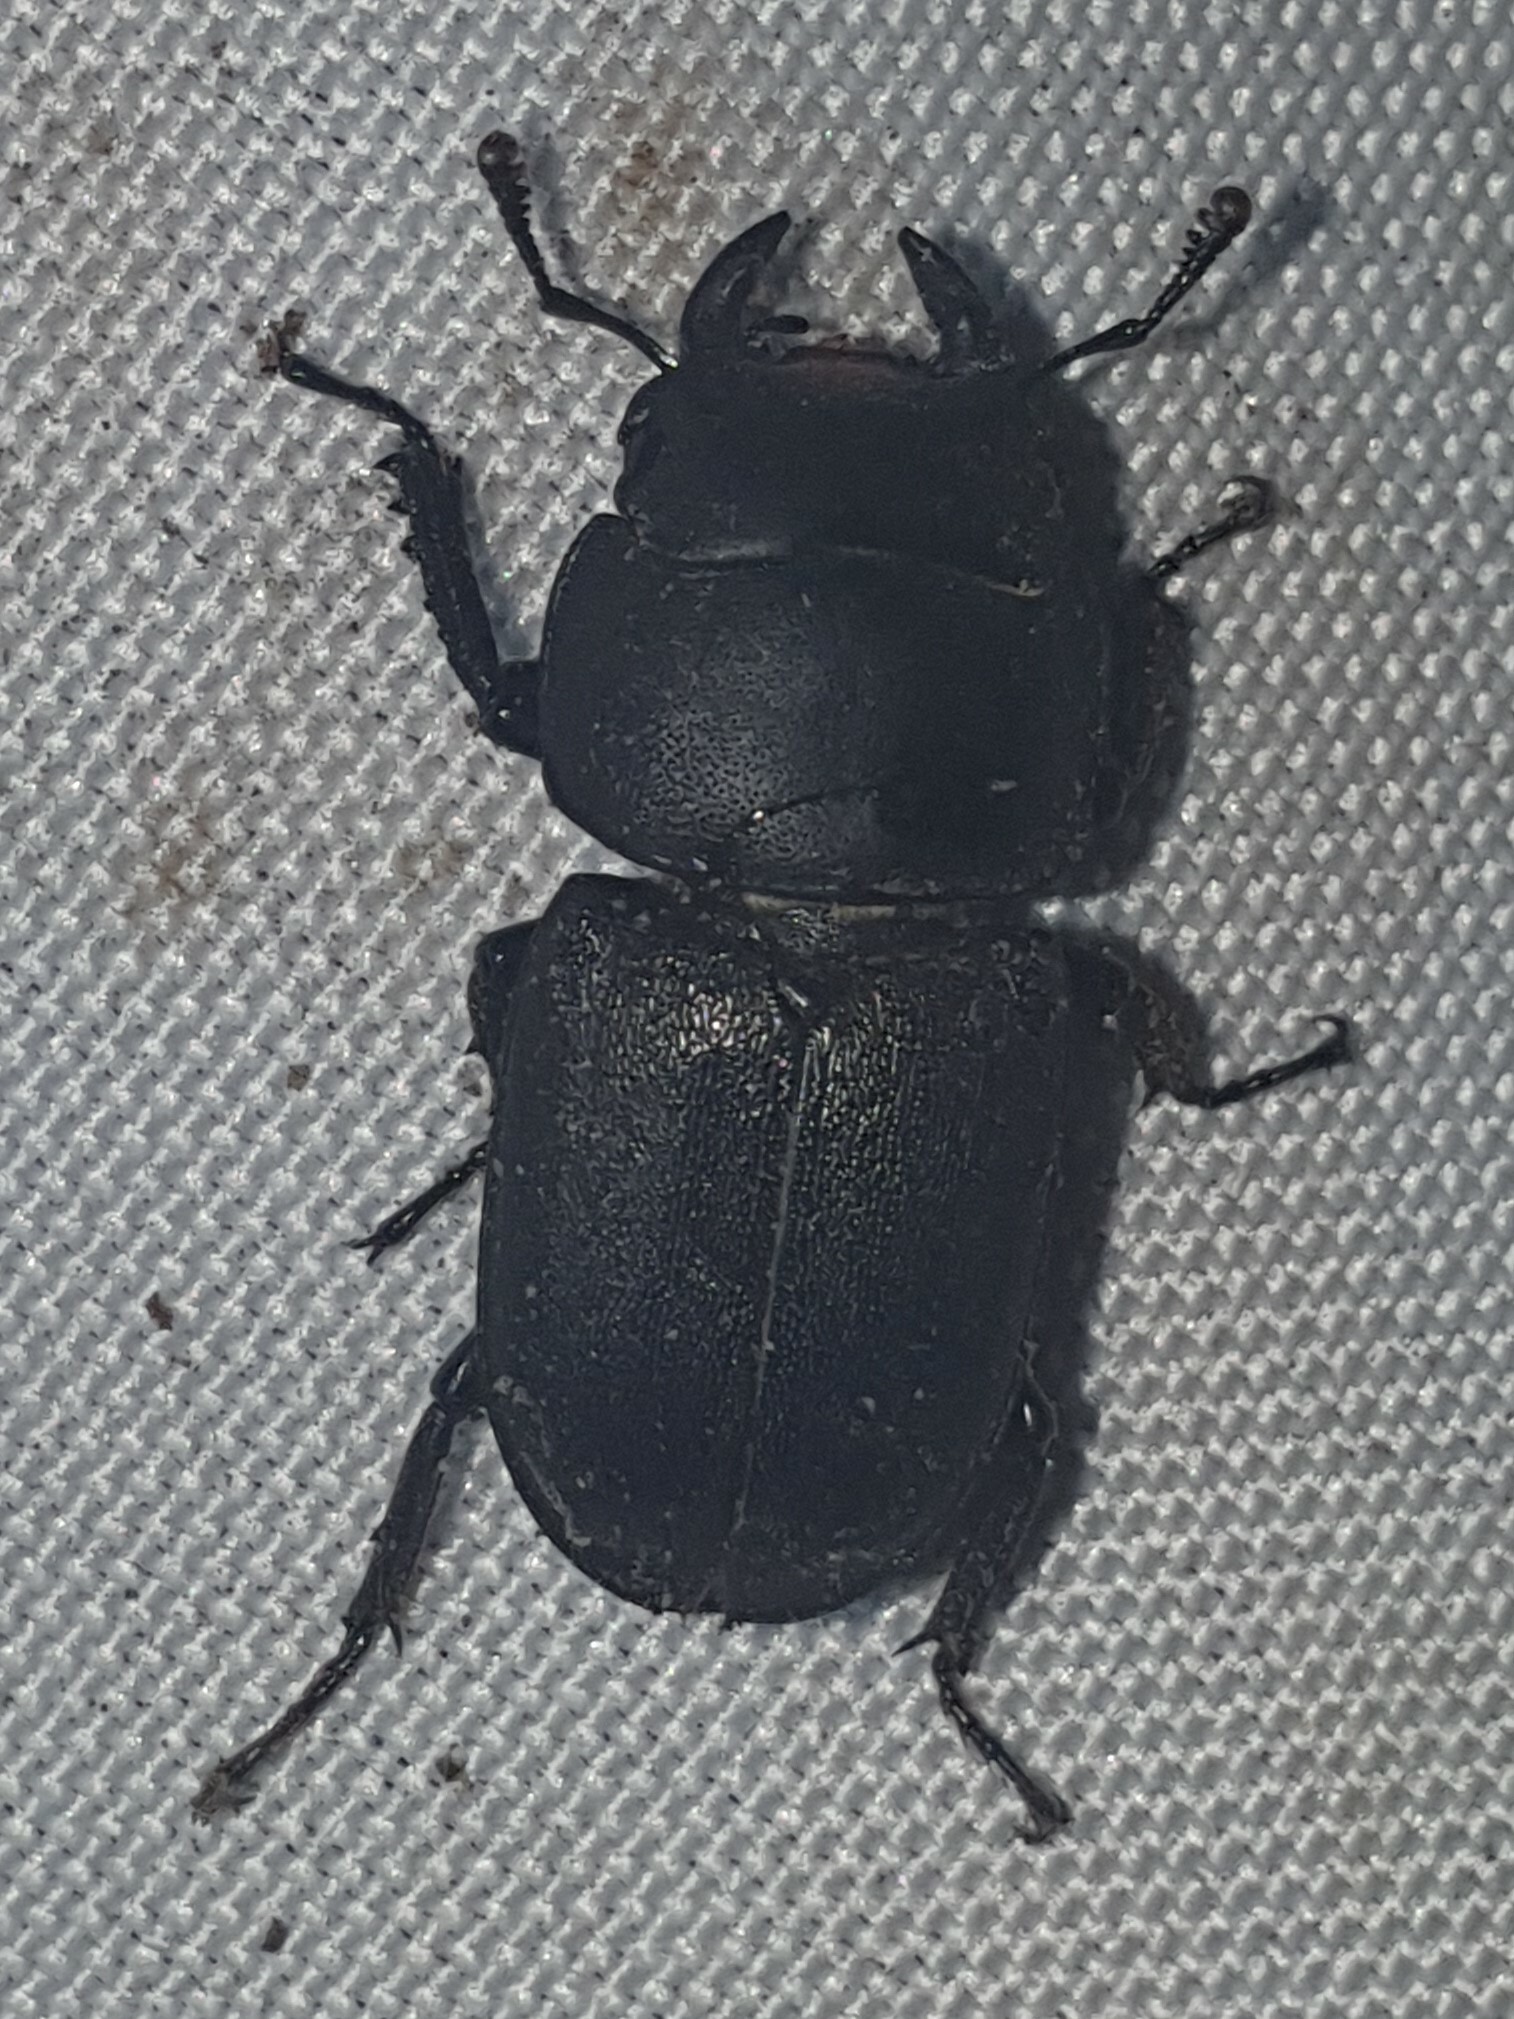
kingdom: Animalia
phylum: Arthropoda
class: Insecta
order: Coleoptera
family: Lucanidae
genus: Dorcus
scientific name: Dorcus parallelipipedus
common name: Lesser stag beetle
